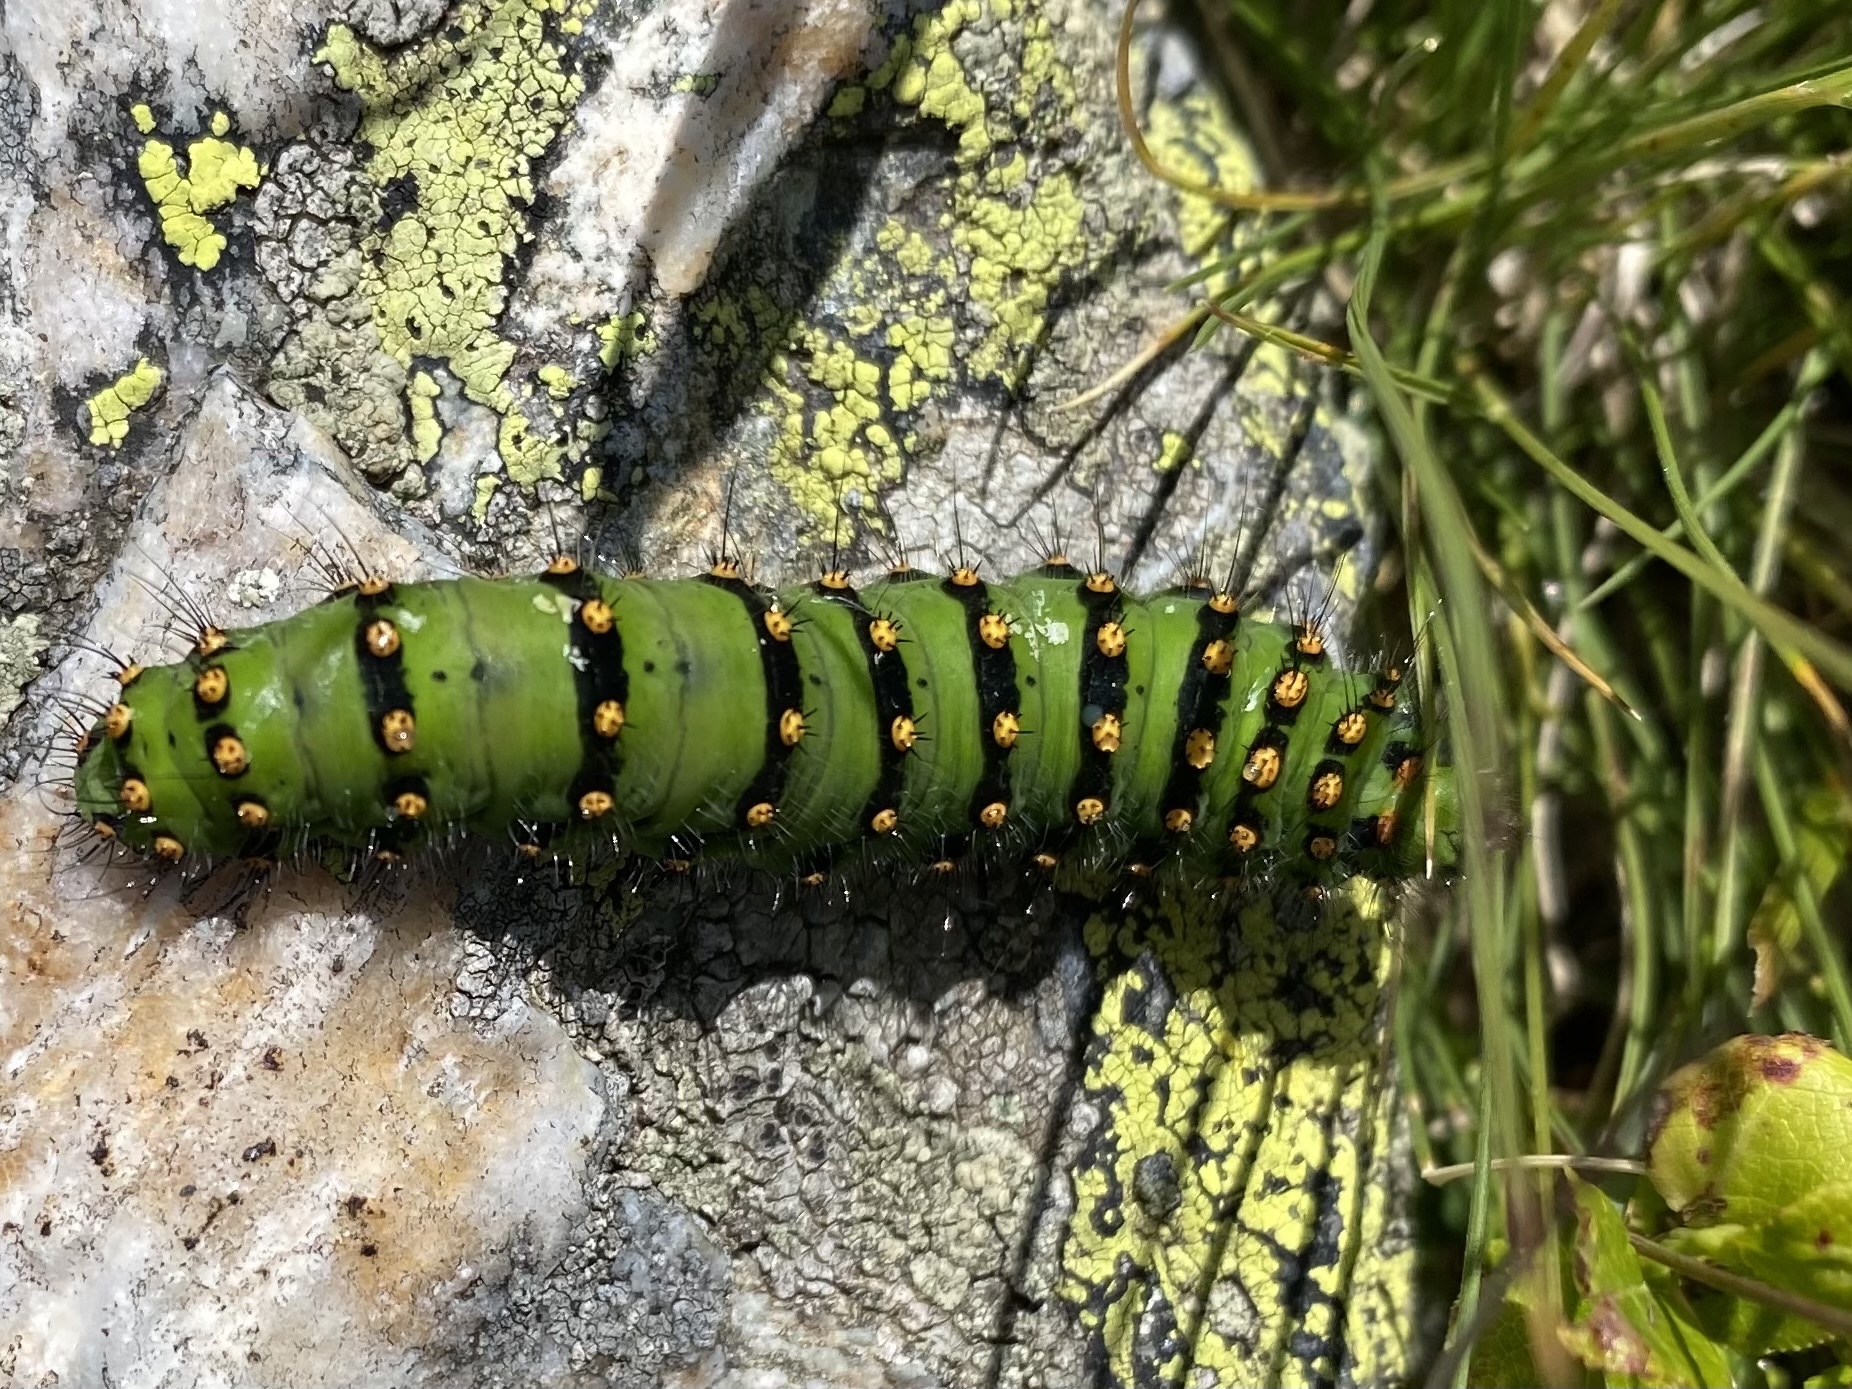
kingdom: Animalia
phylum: Arthropoda
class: Insecta
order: Lepidoptera
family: Saturniidae
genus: Saturnia
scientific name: Saturnia pavonia
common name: Emperor moth
